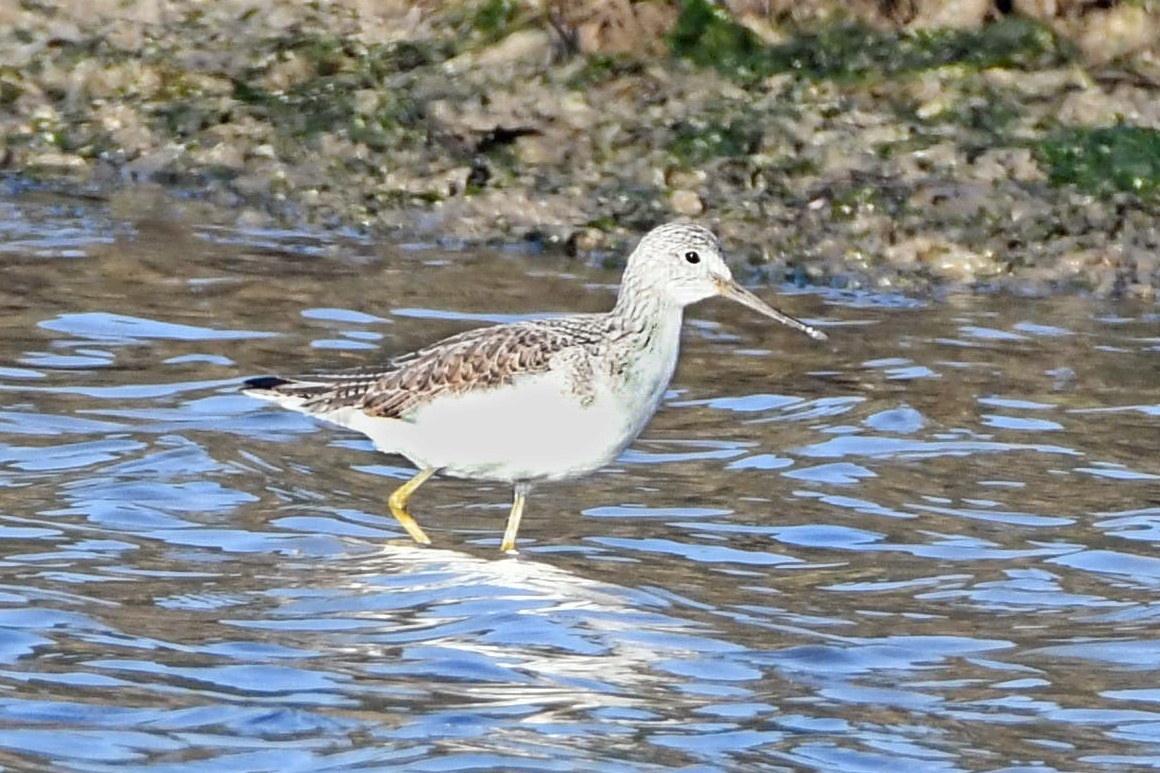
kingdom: Animalia
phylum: Chordata
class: Aves
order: Charadriiformes
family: Scolopacidae
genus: Tringa
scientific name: Tringa nebularia
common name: Common greenshank
